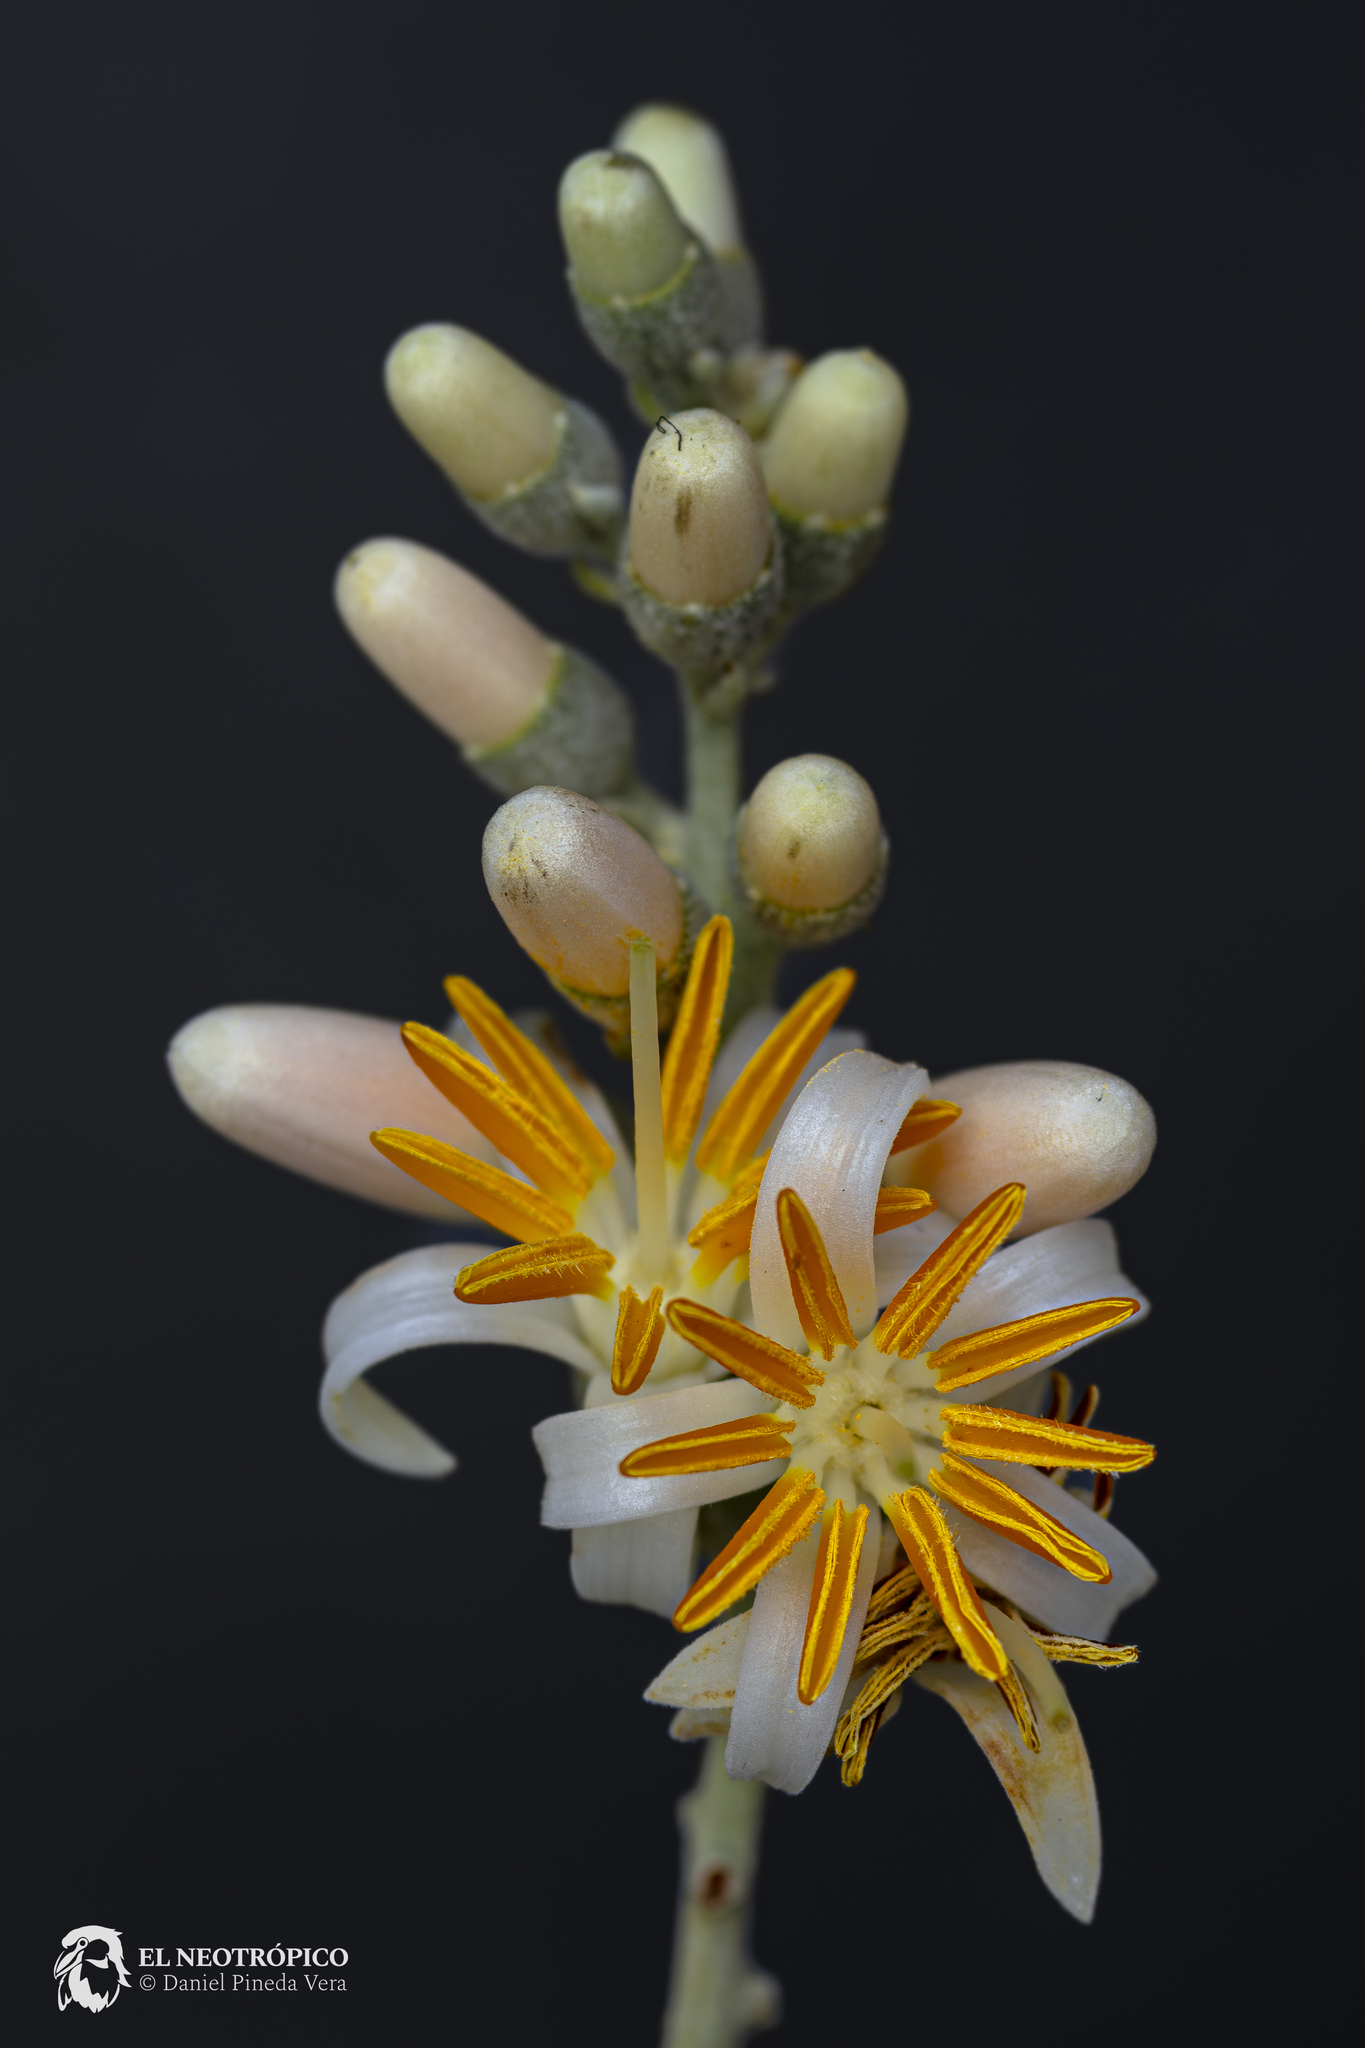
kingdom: Plantae
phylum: Tracheophyta
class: Magnoliopsida
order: Ericales
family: Styracaceae
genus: Styrax
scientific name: Styrax argenteus
